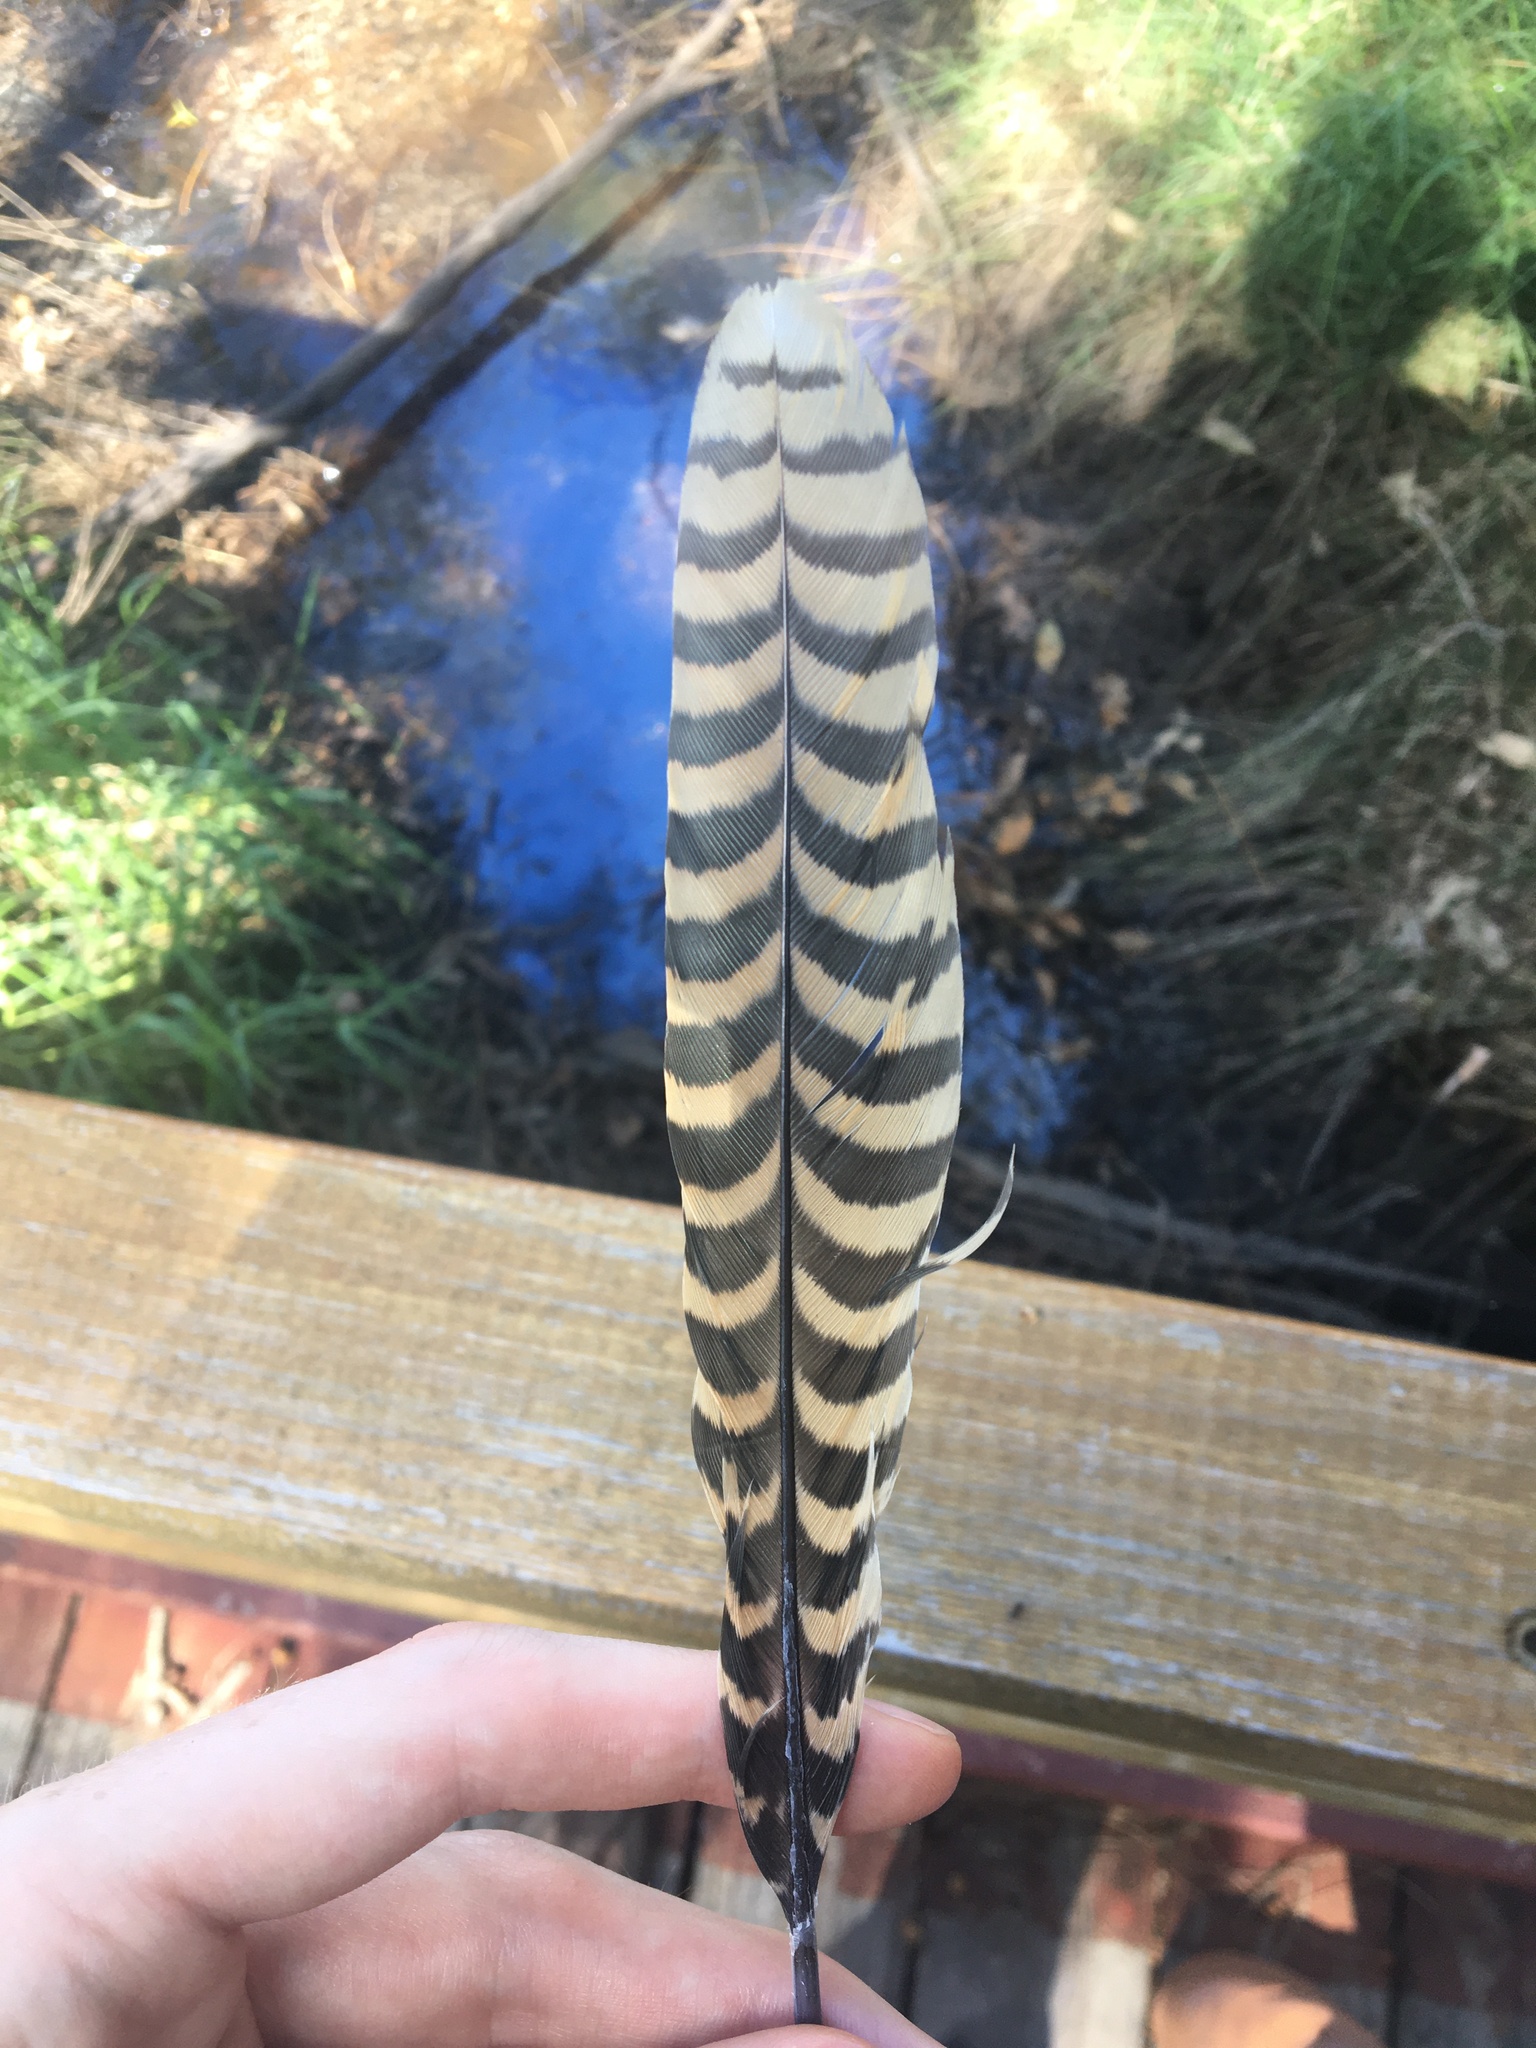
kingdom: Animalia
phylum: Chordata
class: Aves
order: Cuculiformes
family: Cuculidae
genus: Eudynamys
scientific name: Eudynamys orientalis
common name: Pacific koel
